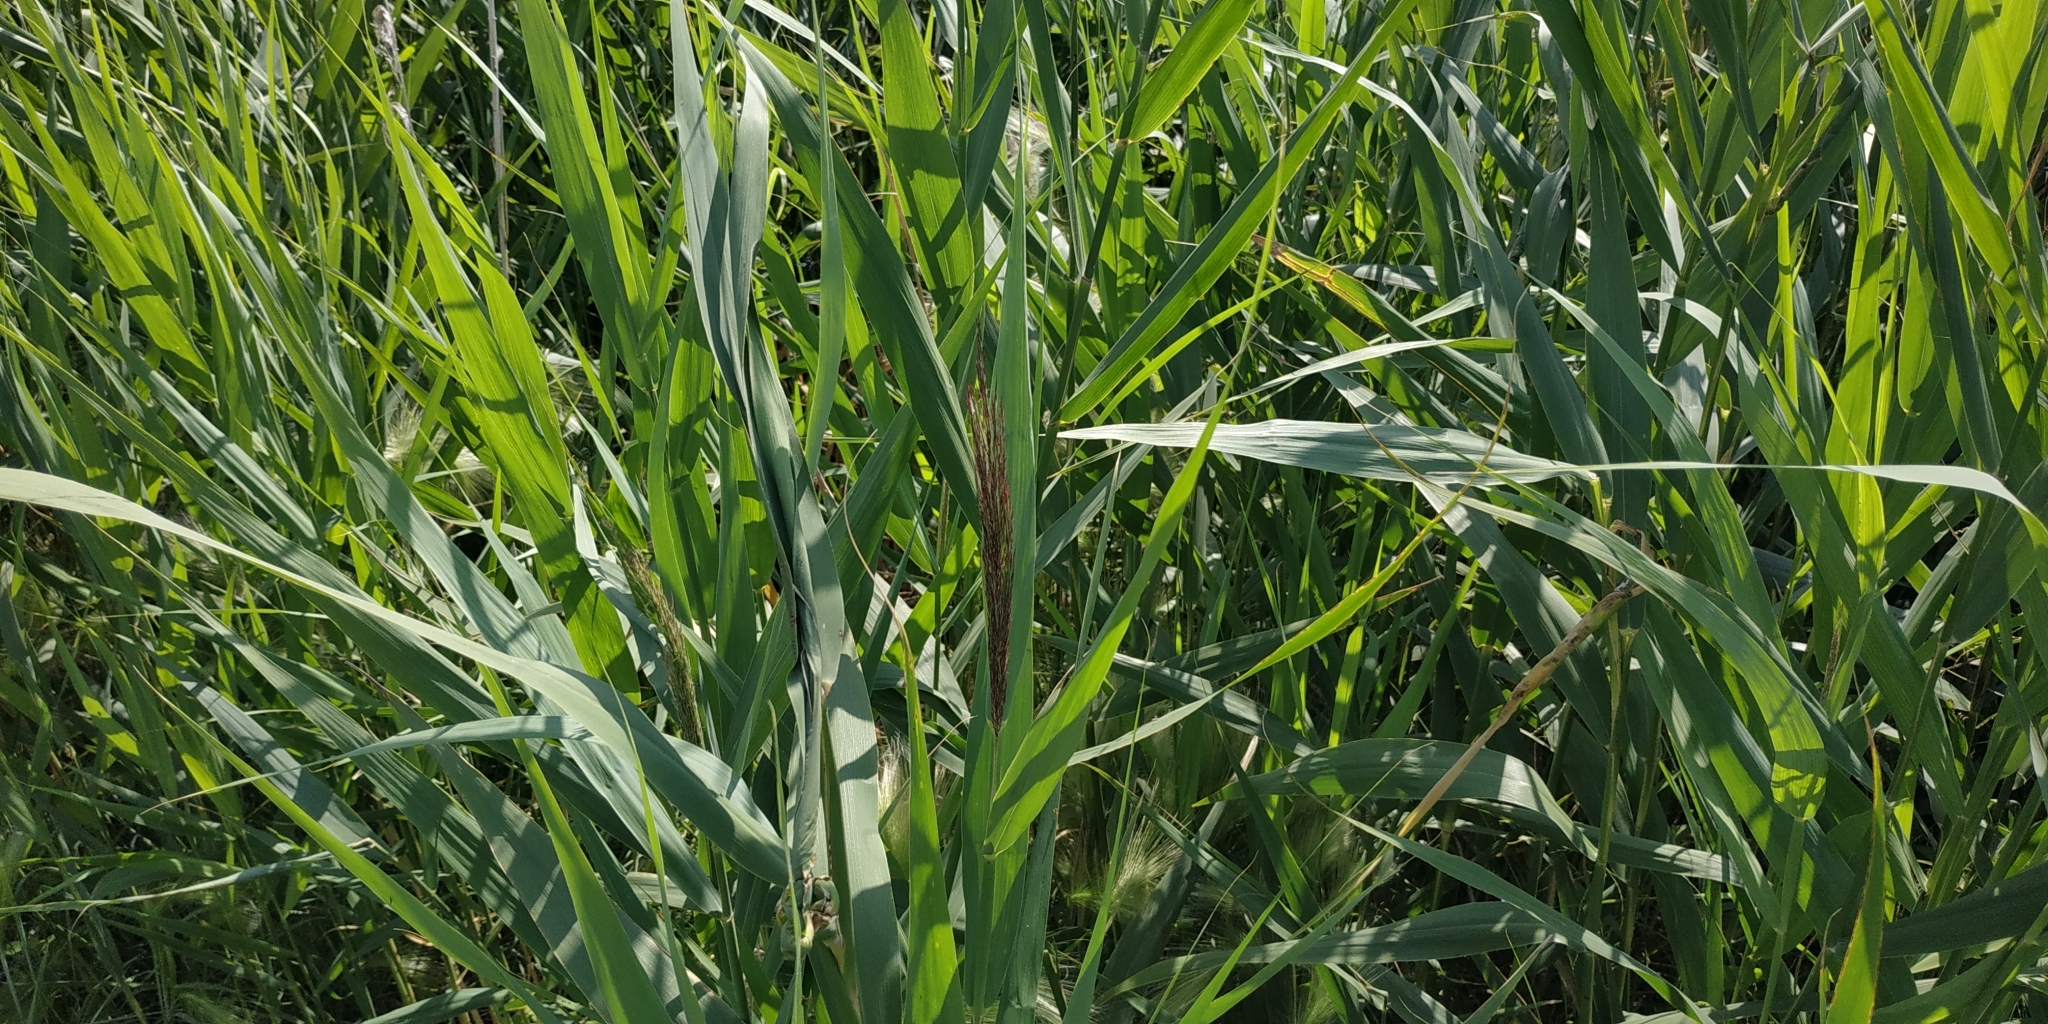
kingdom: Plantae
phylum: Tracheophyta
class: Liliopsida
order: Poales
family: Poaceae
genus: Phragmites
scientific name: Phragmites australis
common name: Common reed
